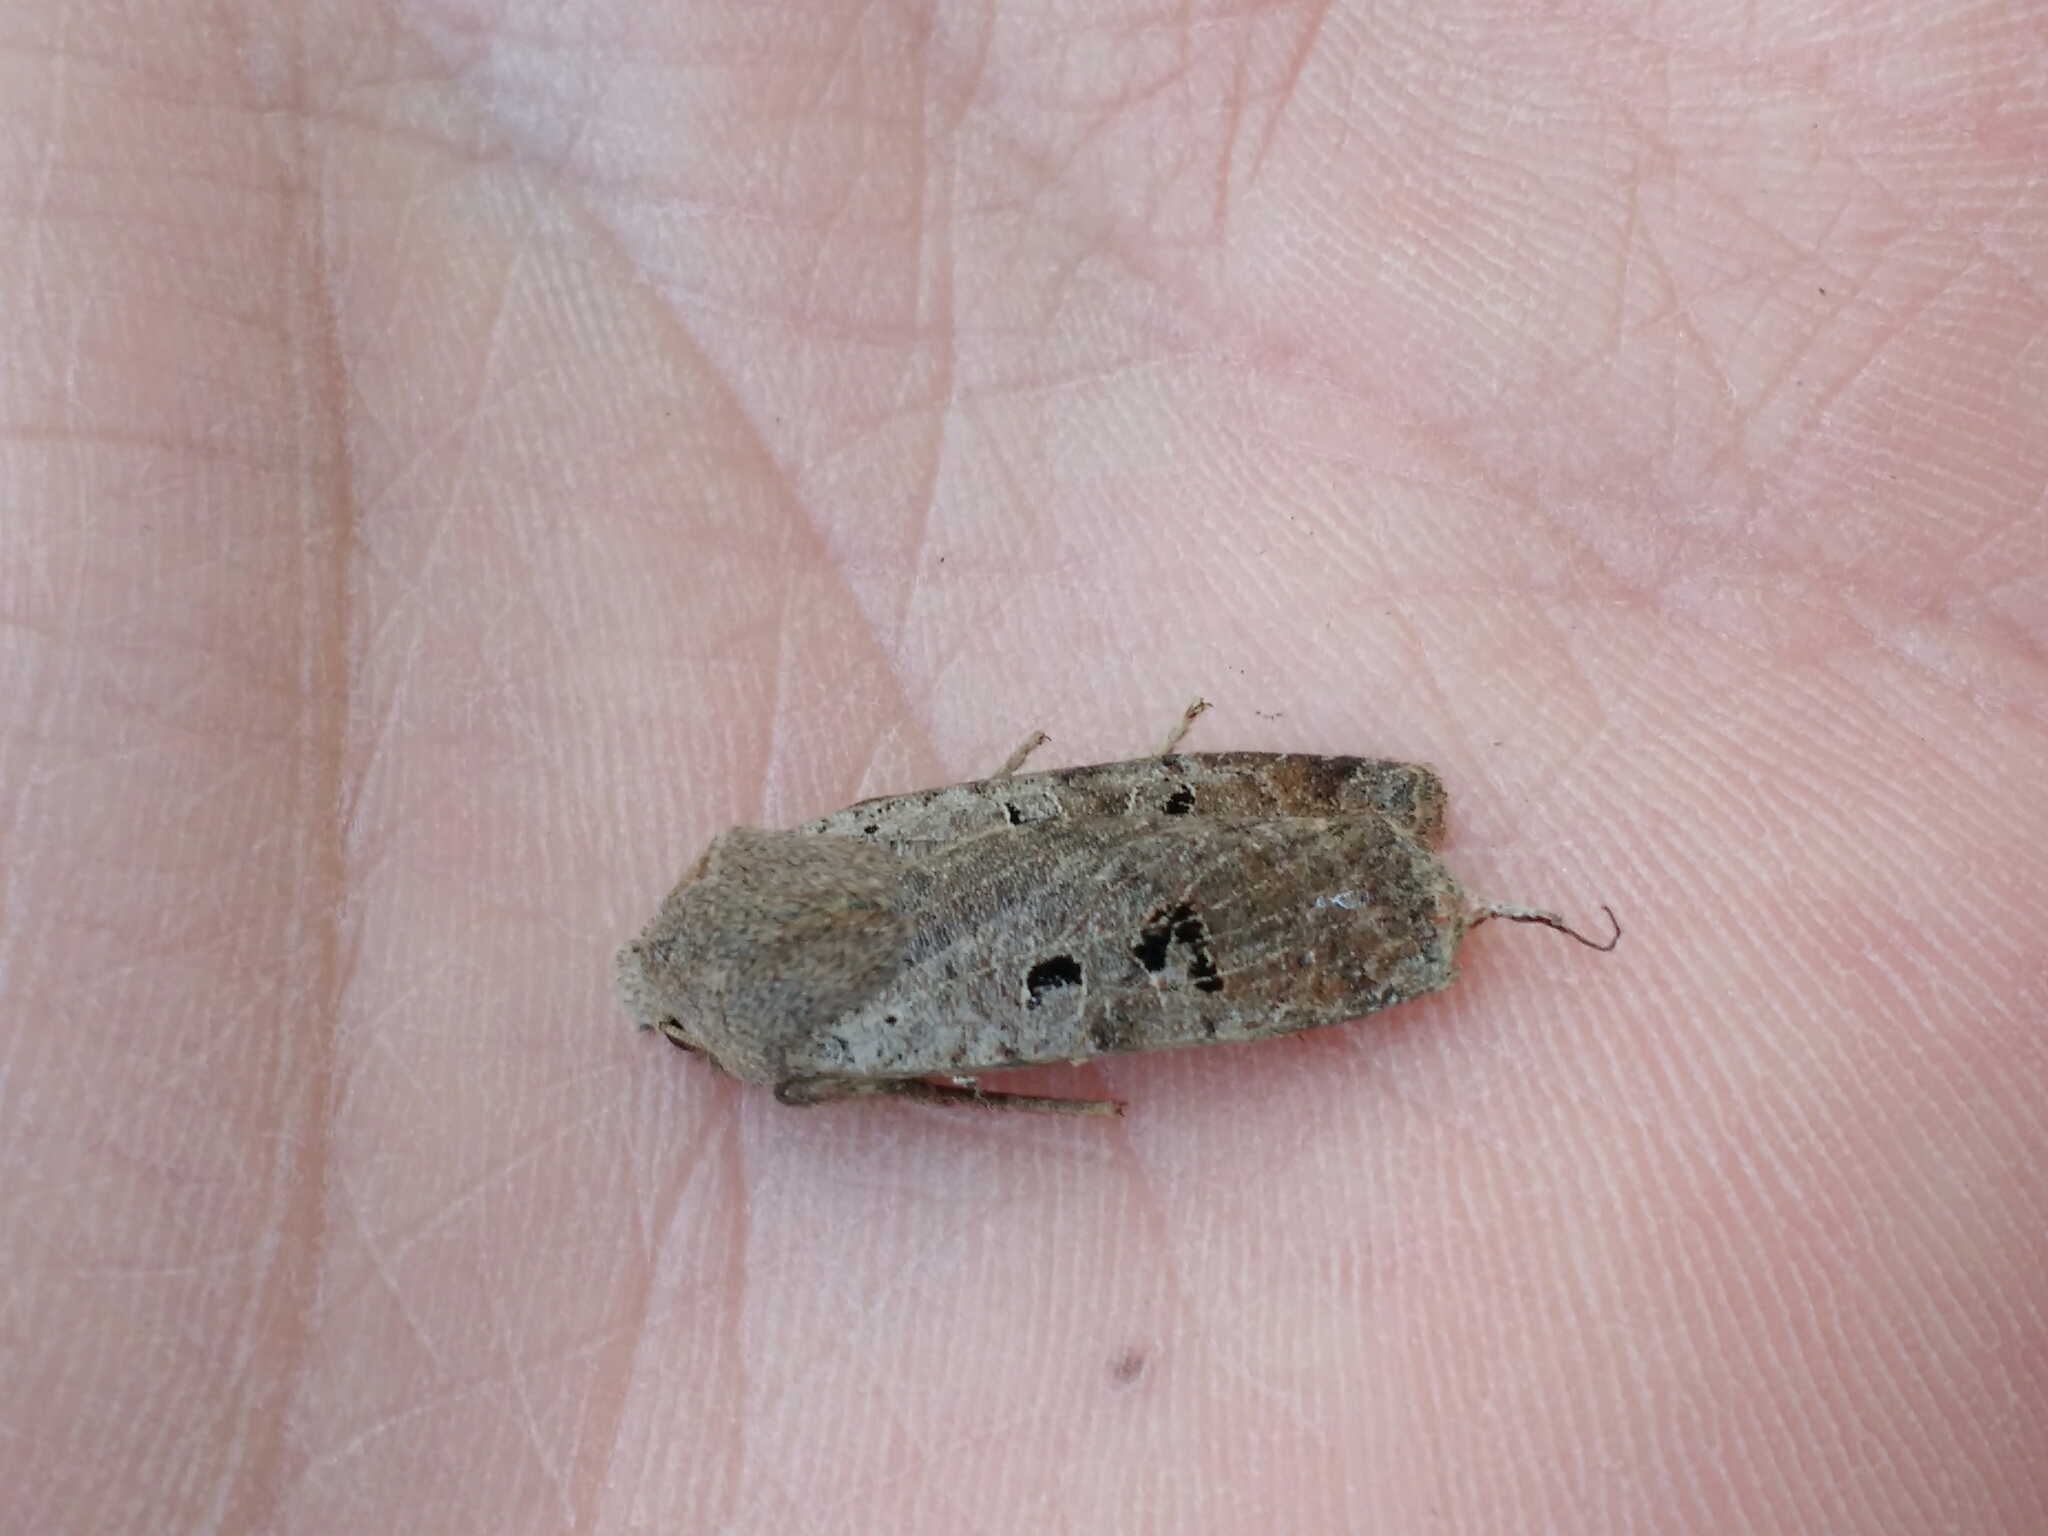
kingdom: Animalia
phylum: Arthropoda
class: Insecta
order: Lepidoptera
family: Noctuidae
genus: Conistra
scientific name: Conistra rubiginosa
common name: Black-spotted chestnut
